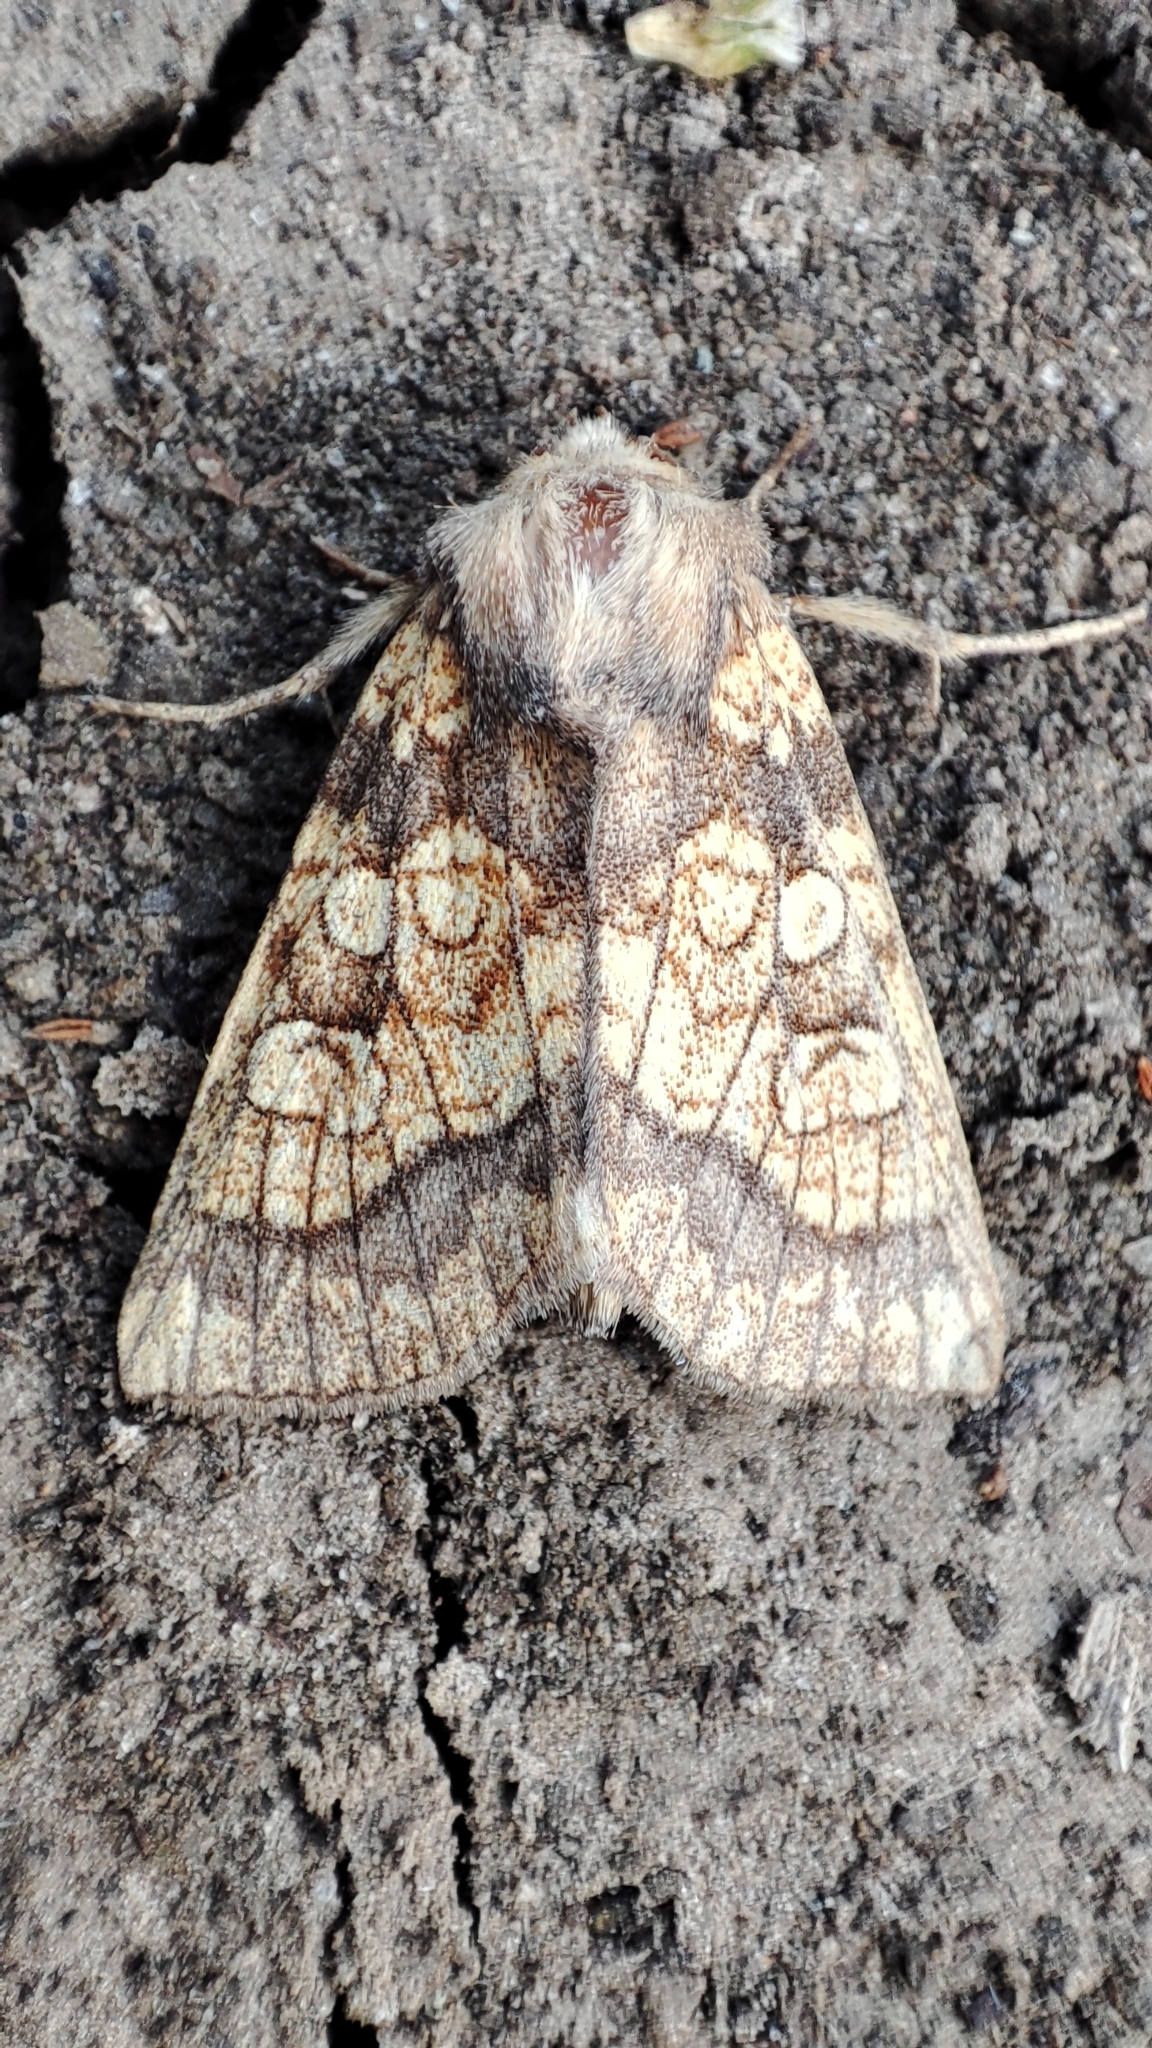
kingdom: Animalia
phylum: Arthropoda
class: Insecta
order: Lepidoptera
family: Noctuidae
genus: Gortyna
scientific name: Gortyna flavago
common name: Frosted orange
